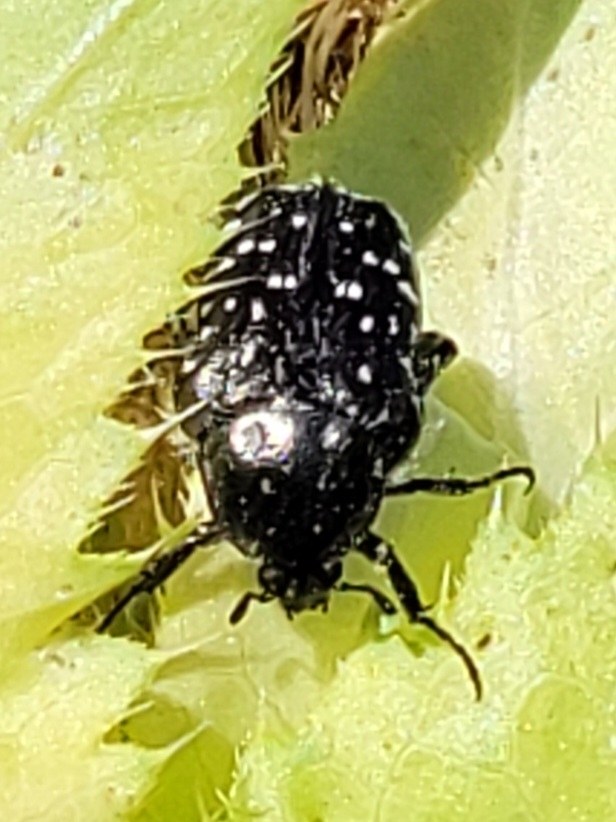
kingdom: Animalia
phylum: Arthropoda
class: Insecta
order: Coleoptera
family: Scarabaeidae
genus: Oxythyrea
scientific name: Oxythyrea funesta
